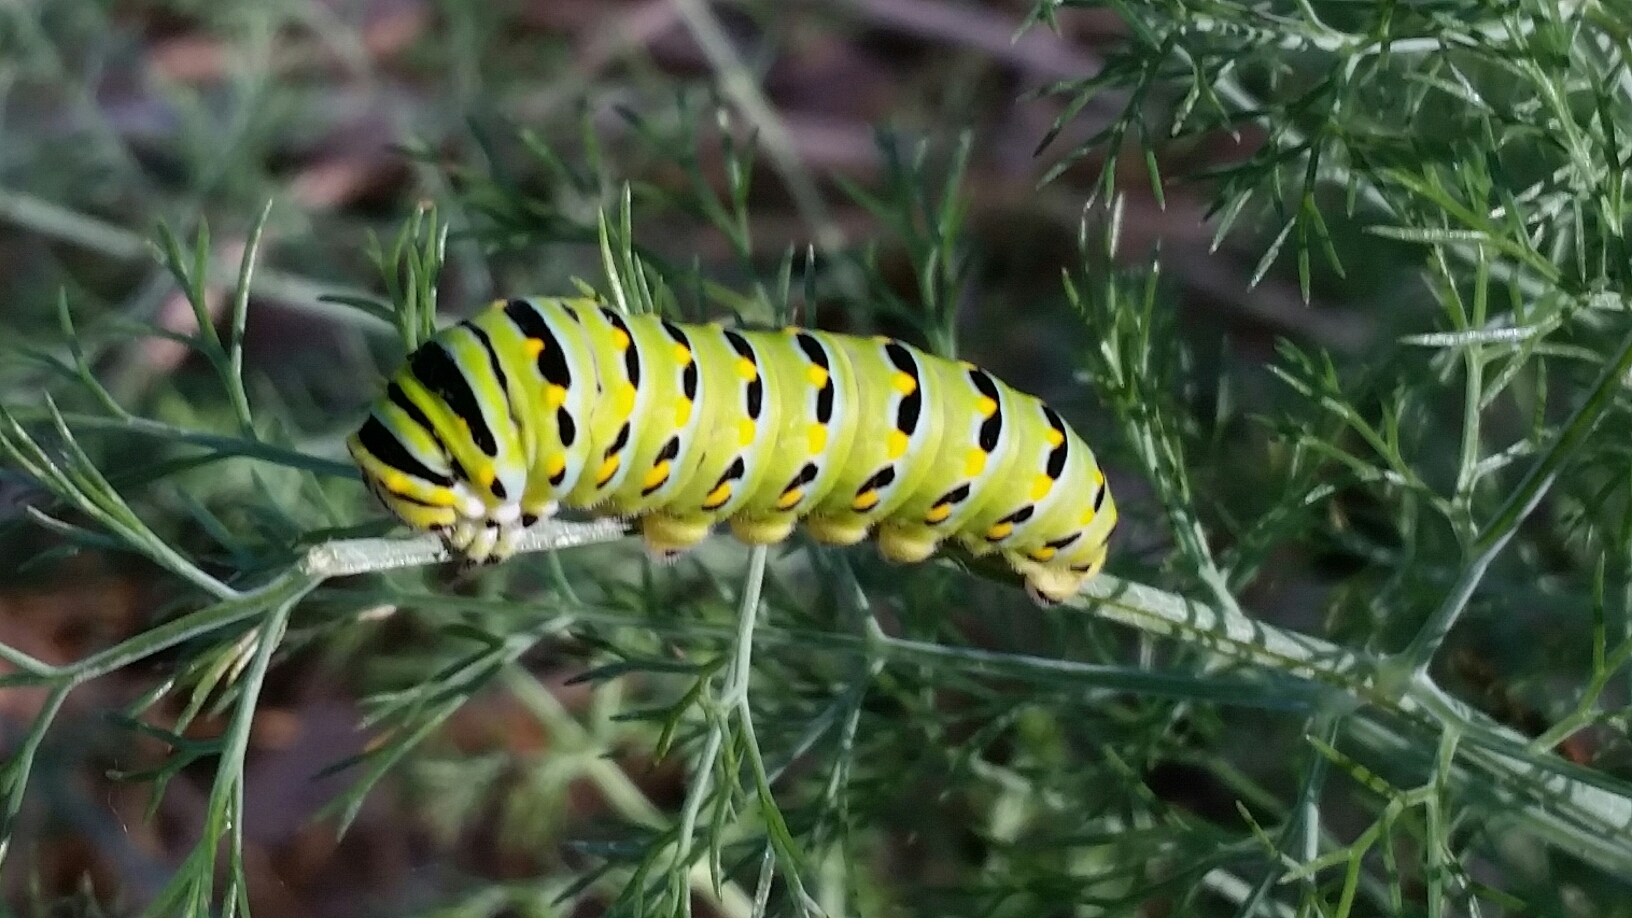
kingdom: Animalia
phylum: Arthropoda
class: Insecta
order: Lepidoptera
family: Papilionidae
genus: Papilio
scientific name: Papilio zelicaon
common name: Anise swallowtail
